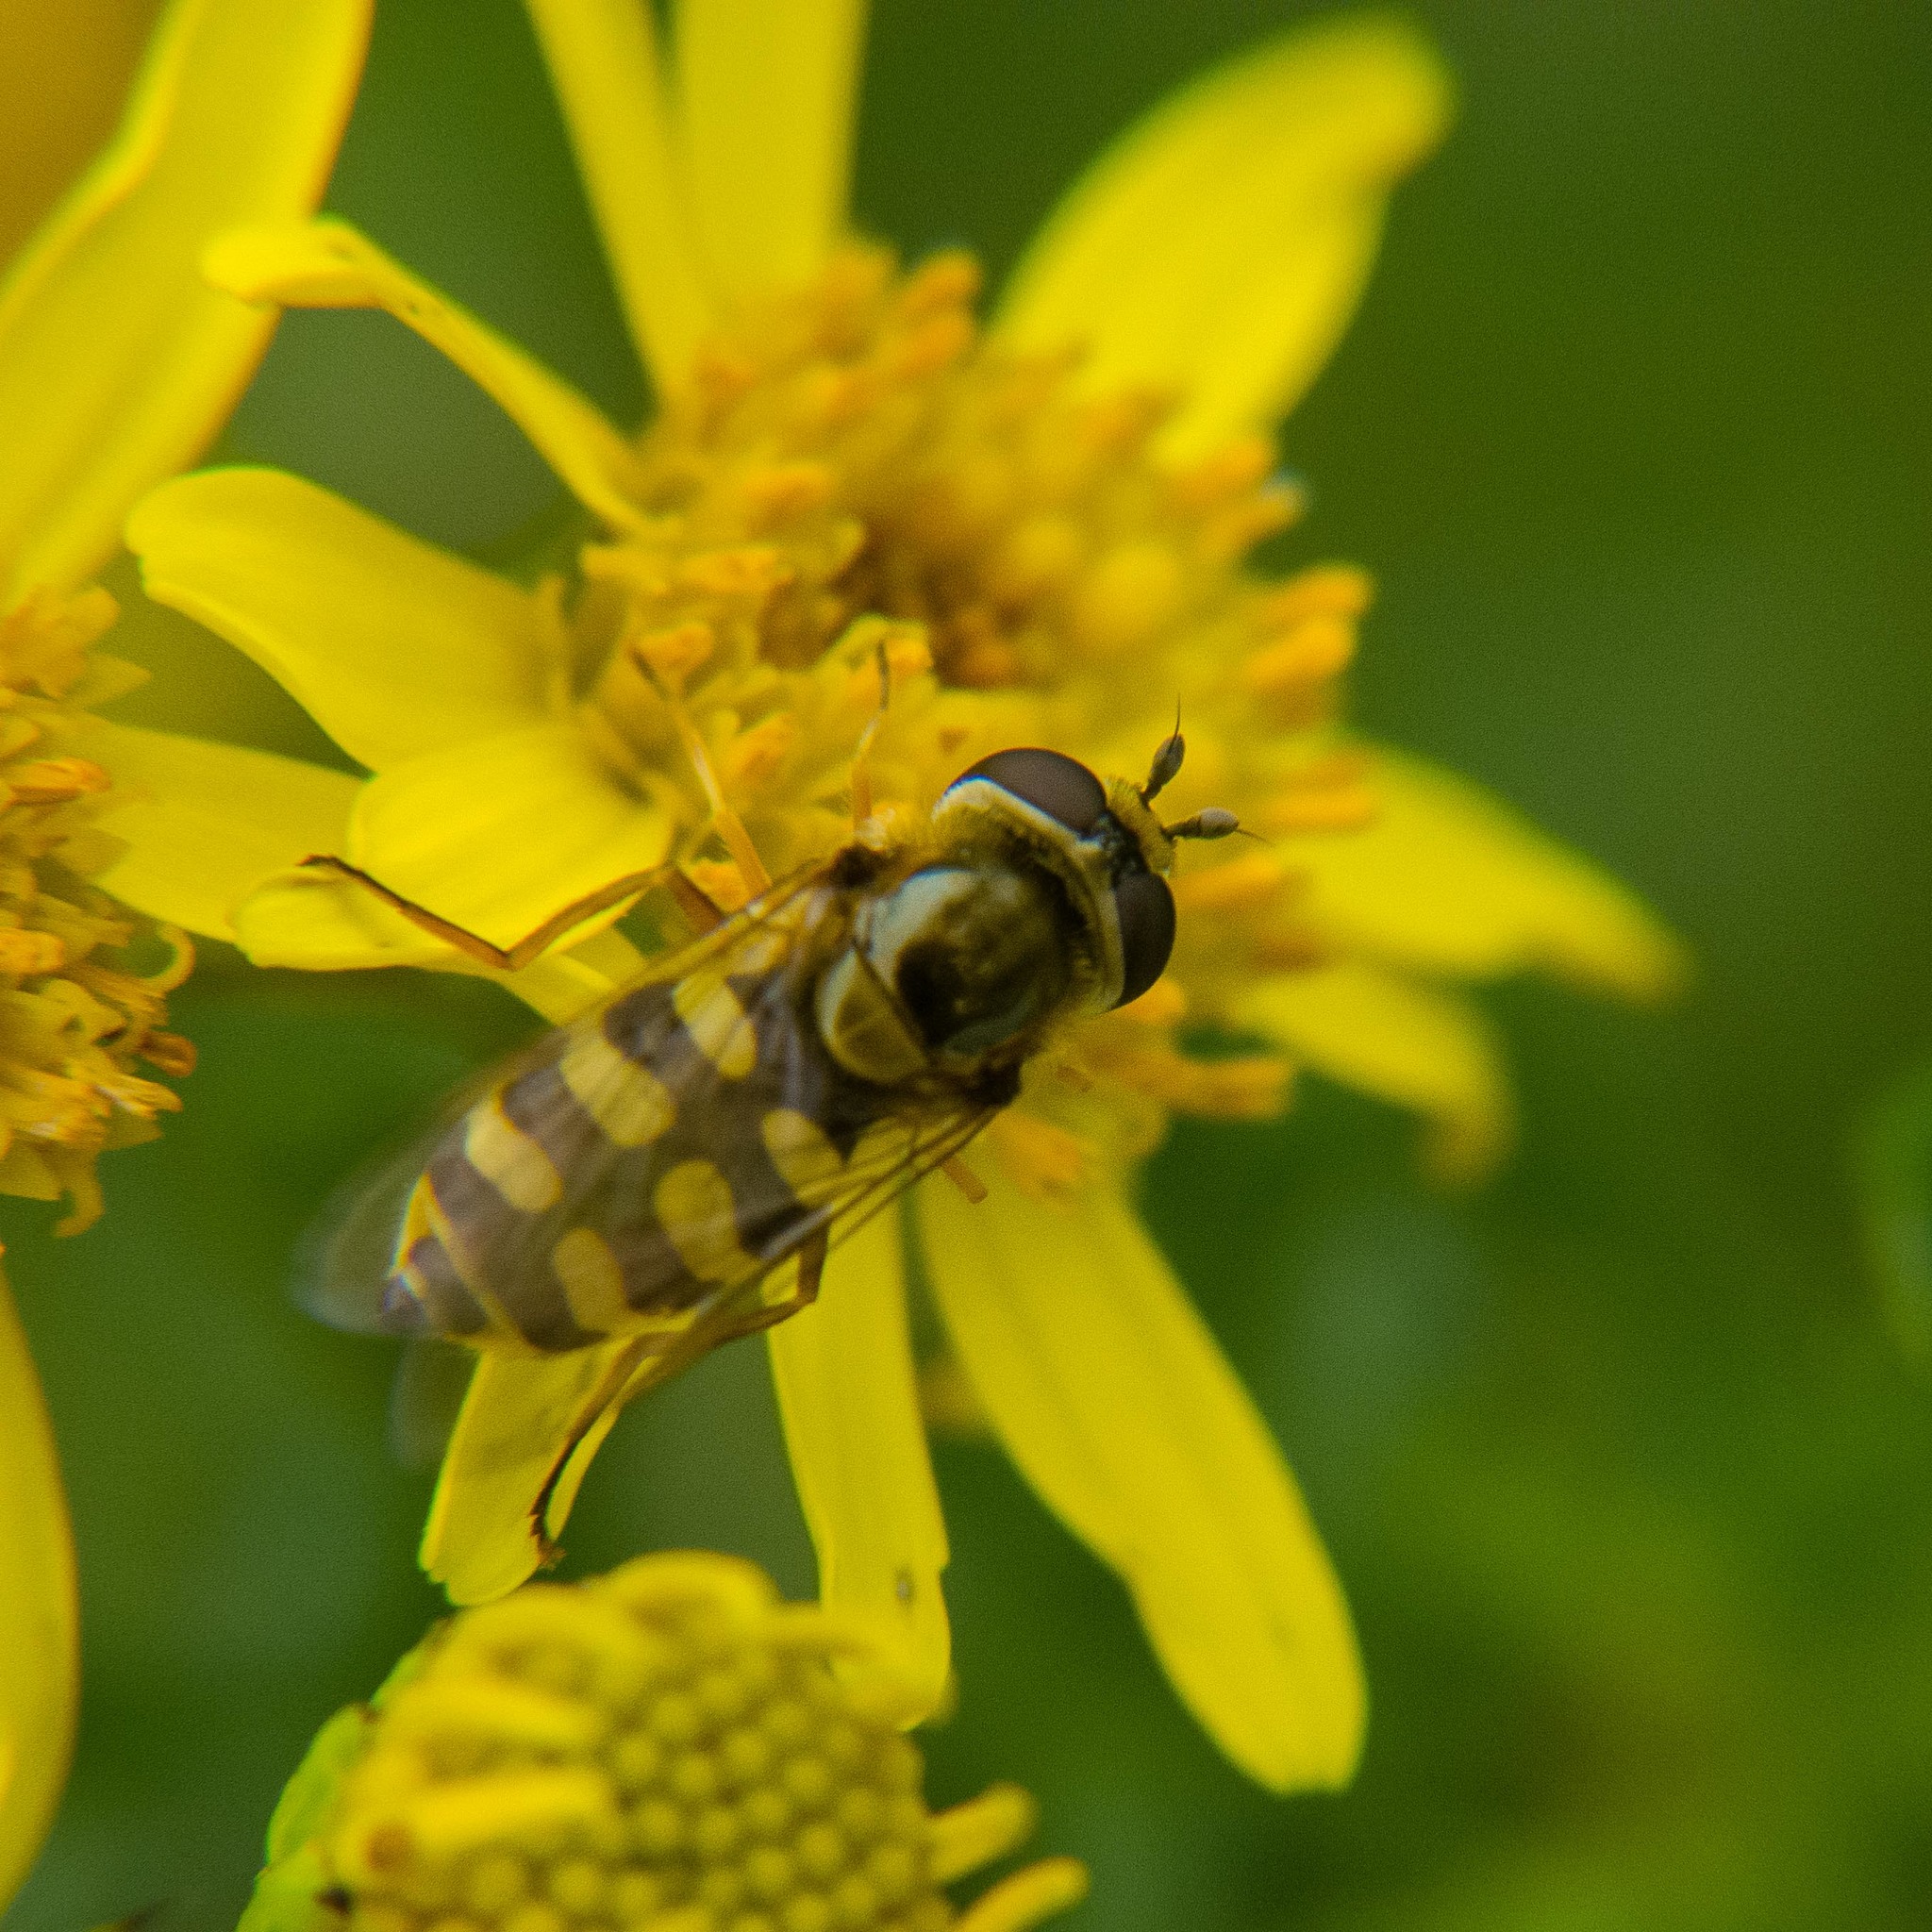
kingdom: Animalia
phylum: Arthropoda
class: Insecta
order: Diptera
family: Syrphidae
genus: Eupeodes
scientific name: Eupeodes corollae
